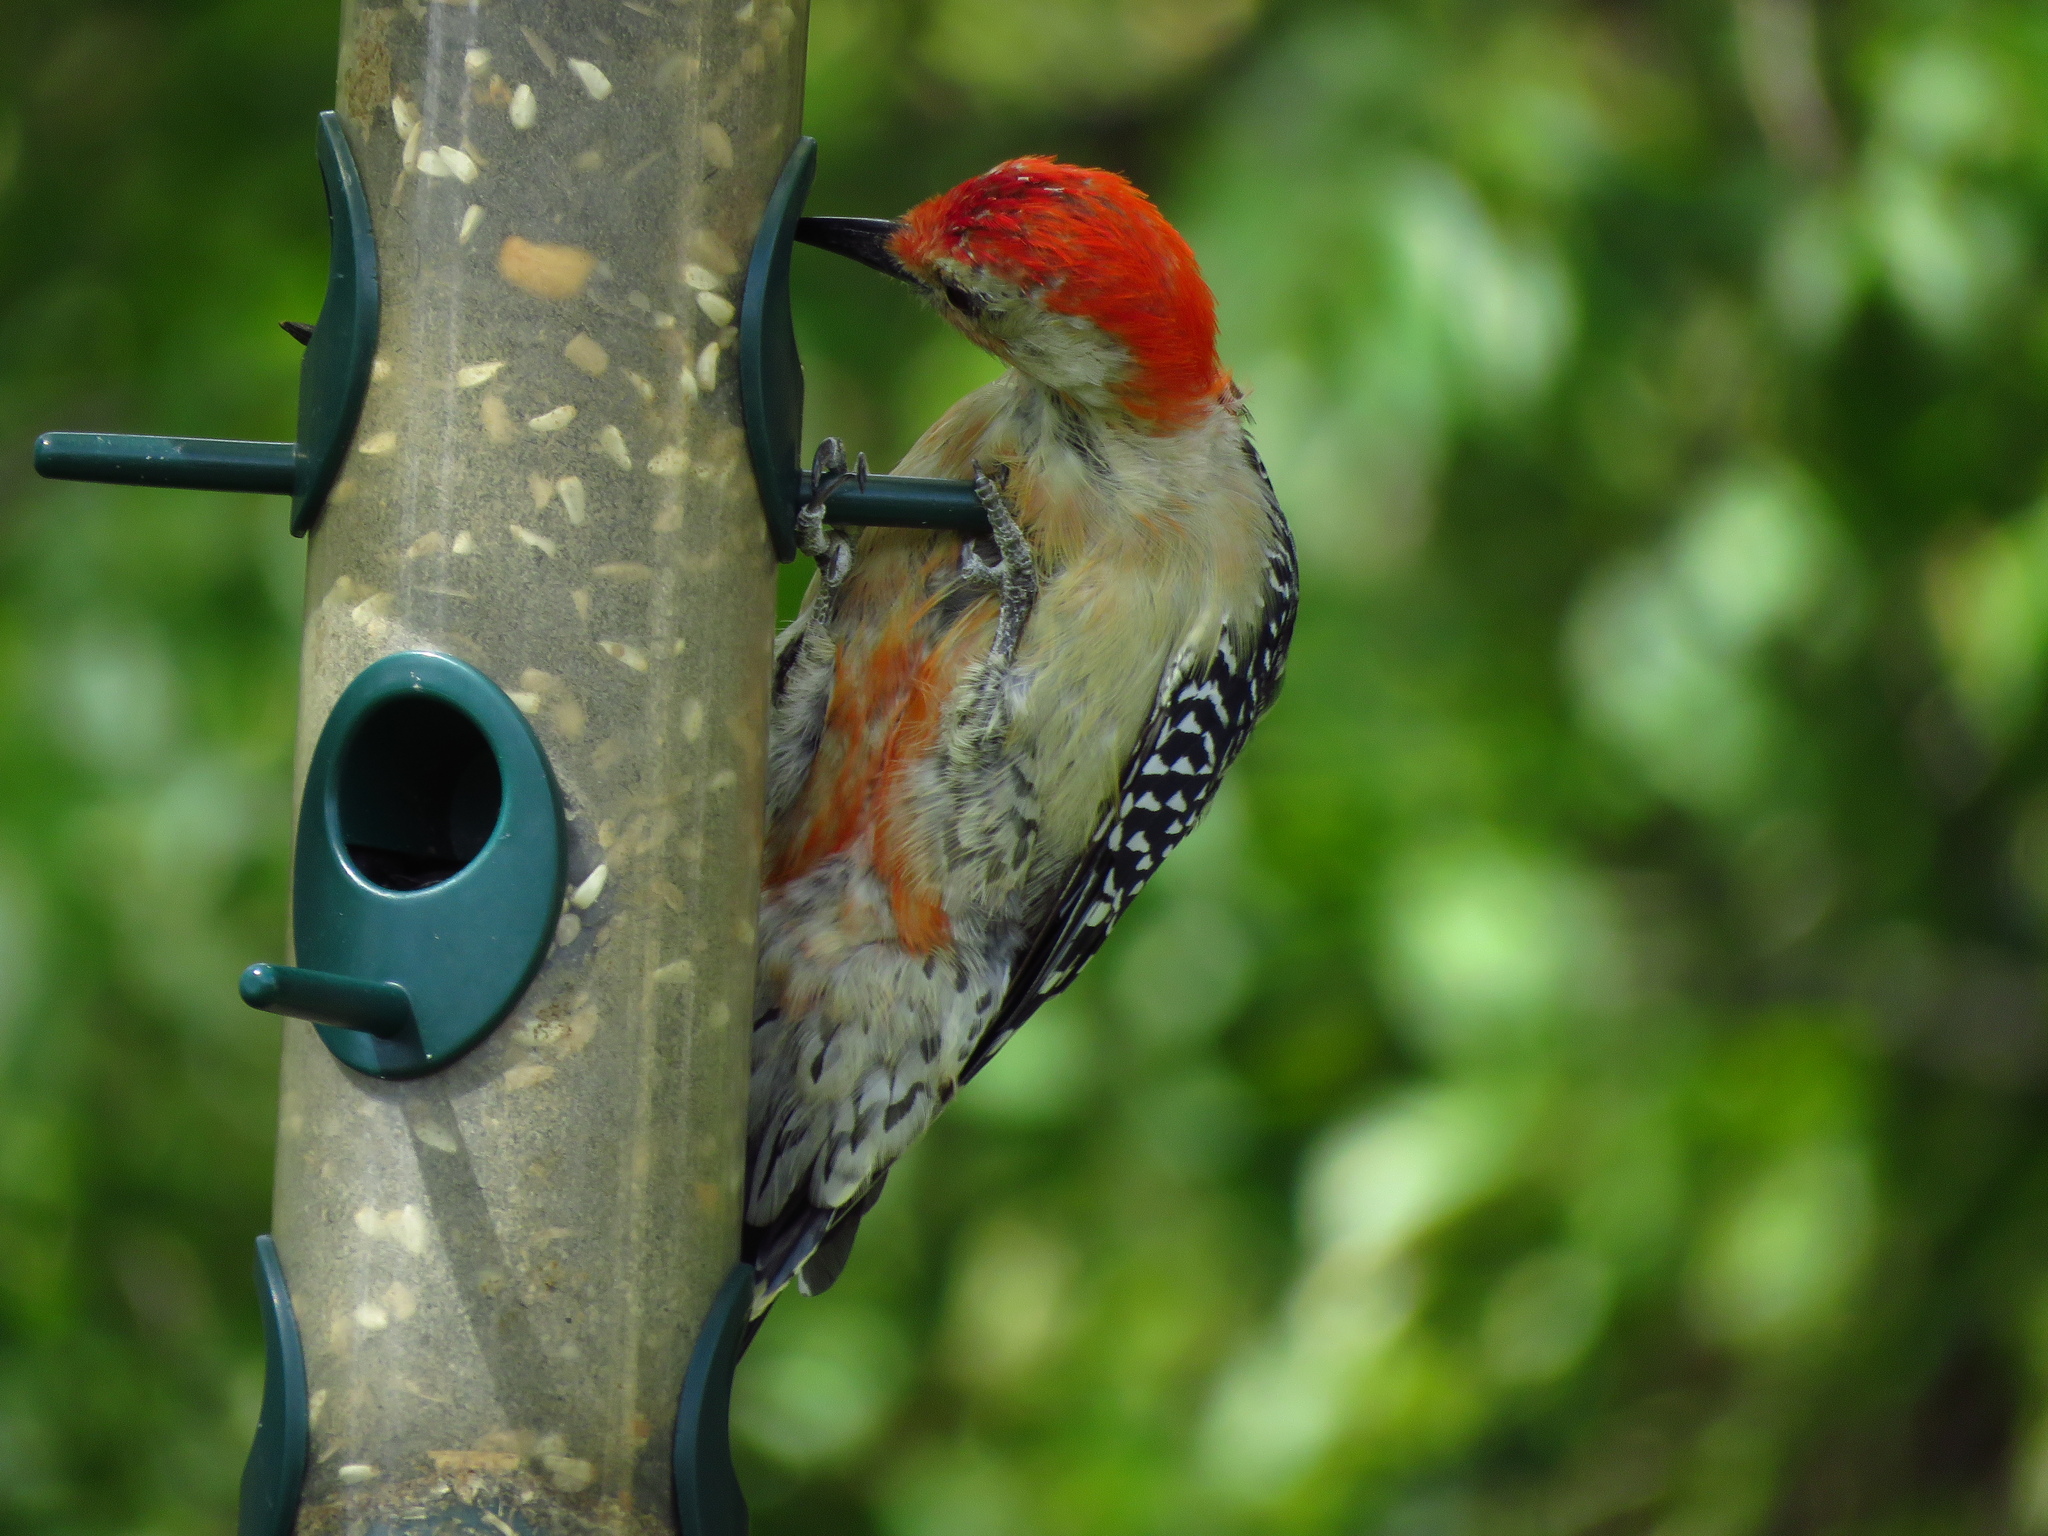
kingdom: Animalia
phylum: Chordata
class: Aves
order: Piciformes
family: Picidae
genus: Melanerpes
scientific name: Melanerpes carolinus
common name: Red-bellied woodpecker
